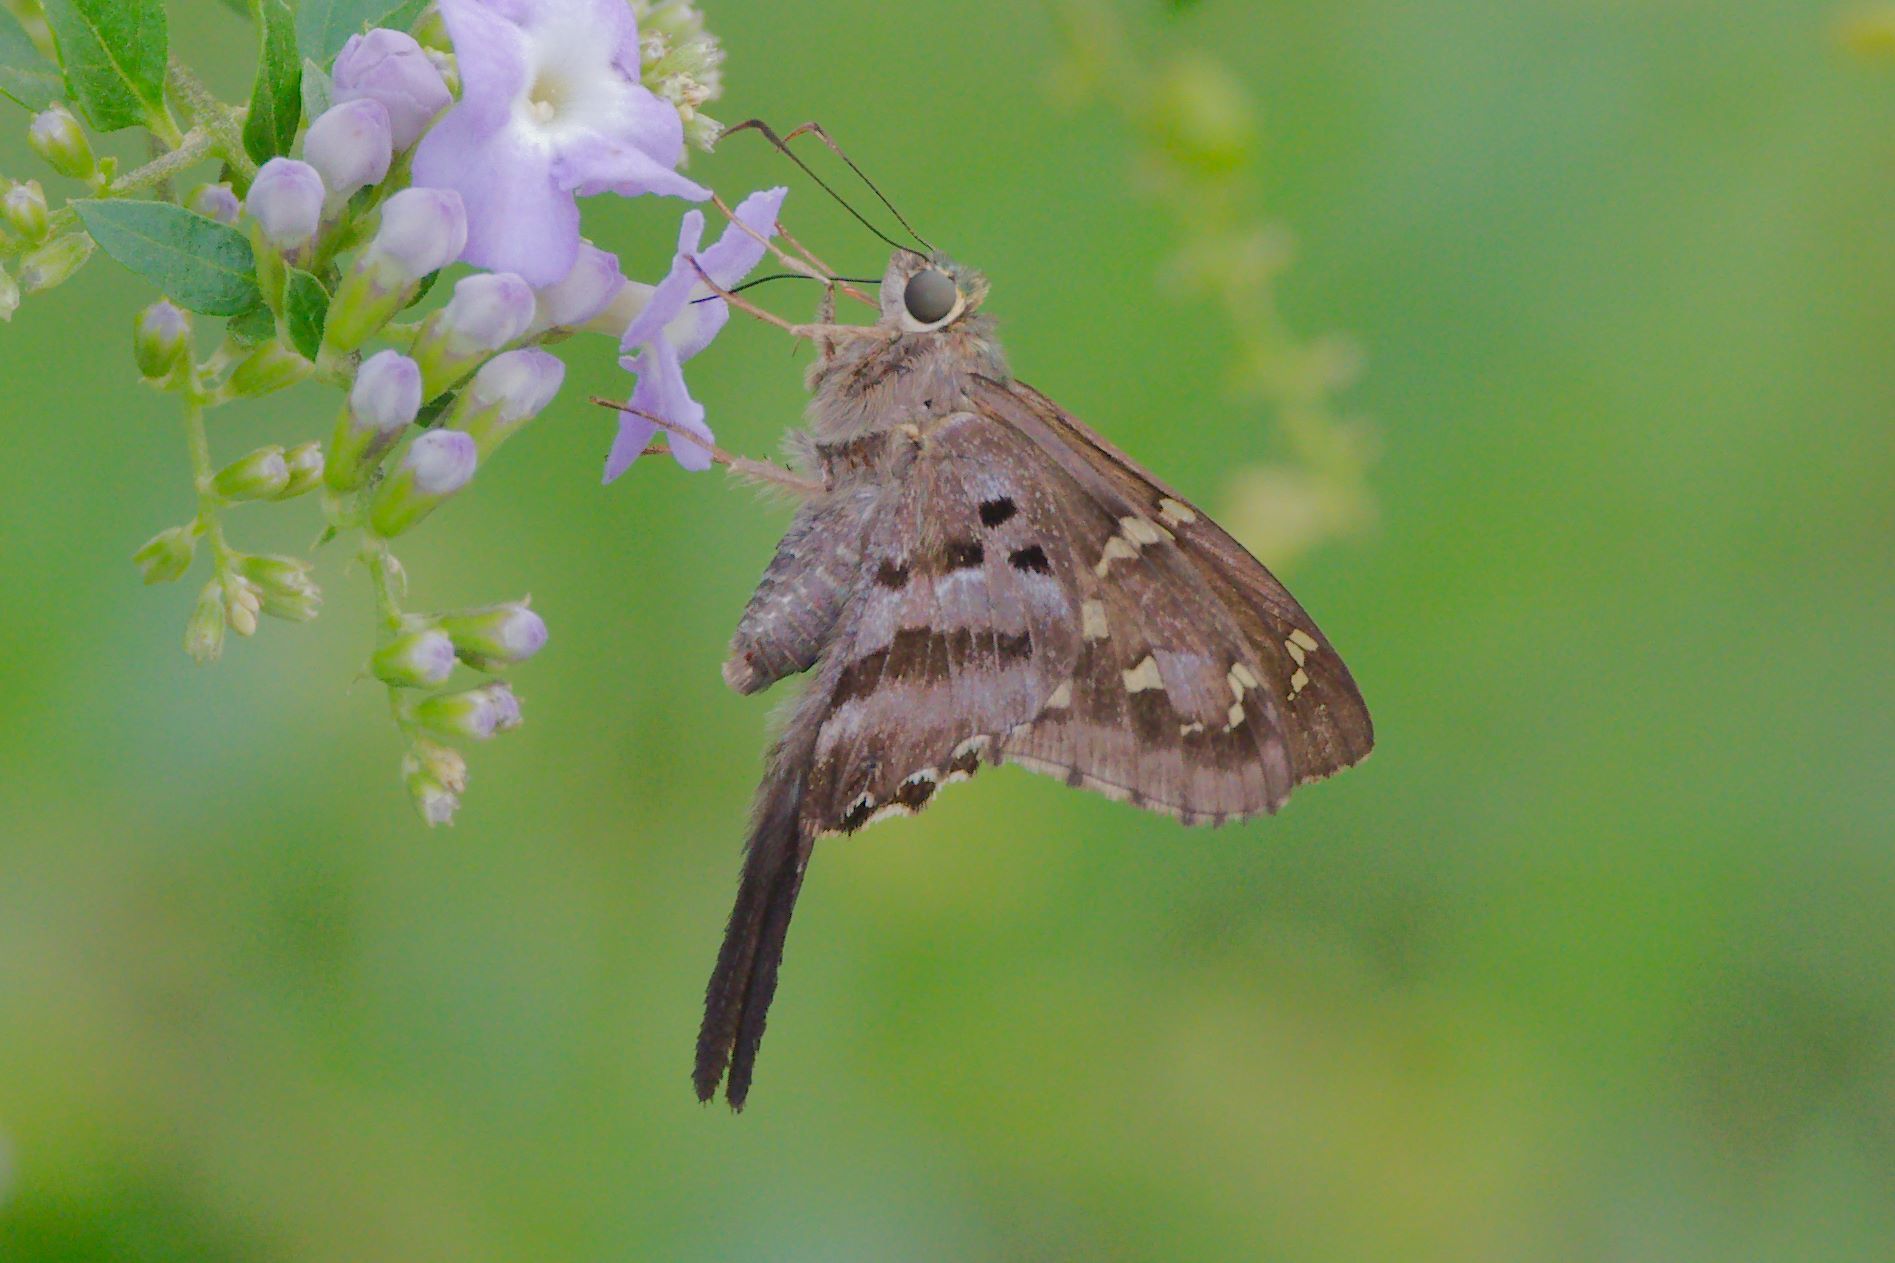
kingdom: Animalia
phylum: Arthropoda
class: Insecta
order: Lepidoptera
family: Hesperiidae
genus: Urbanus
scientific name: Urbanus proteus
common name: Long-tailed skipper
